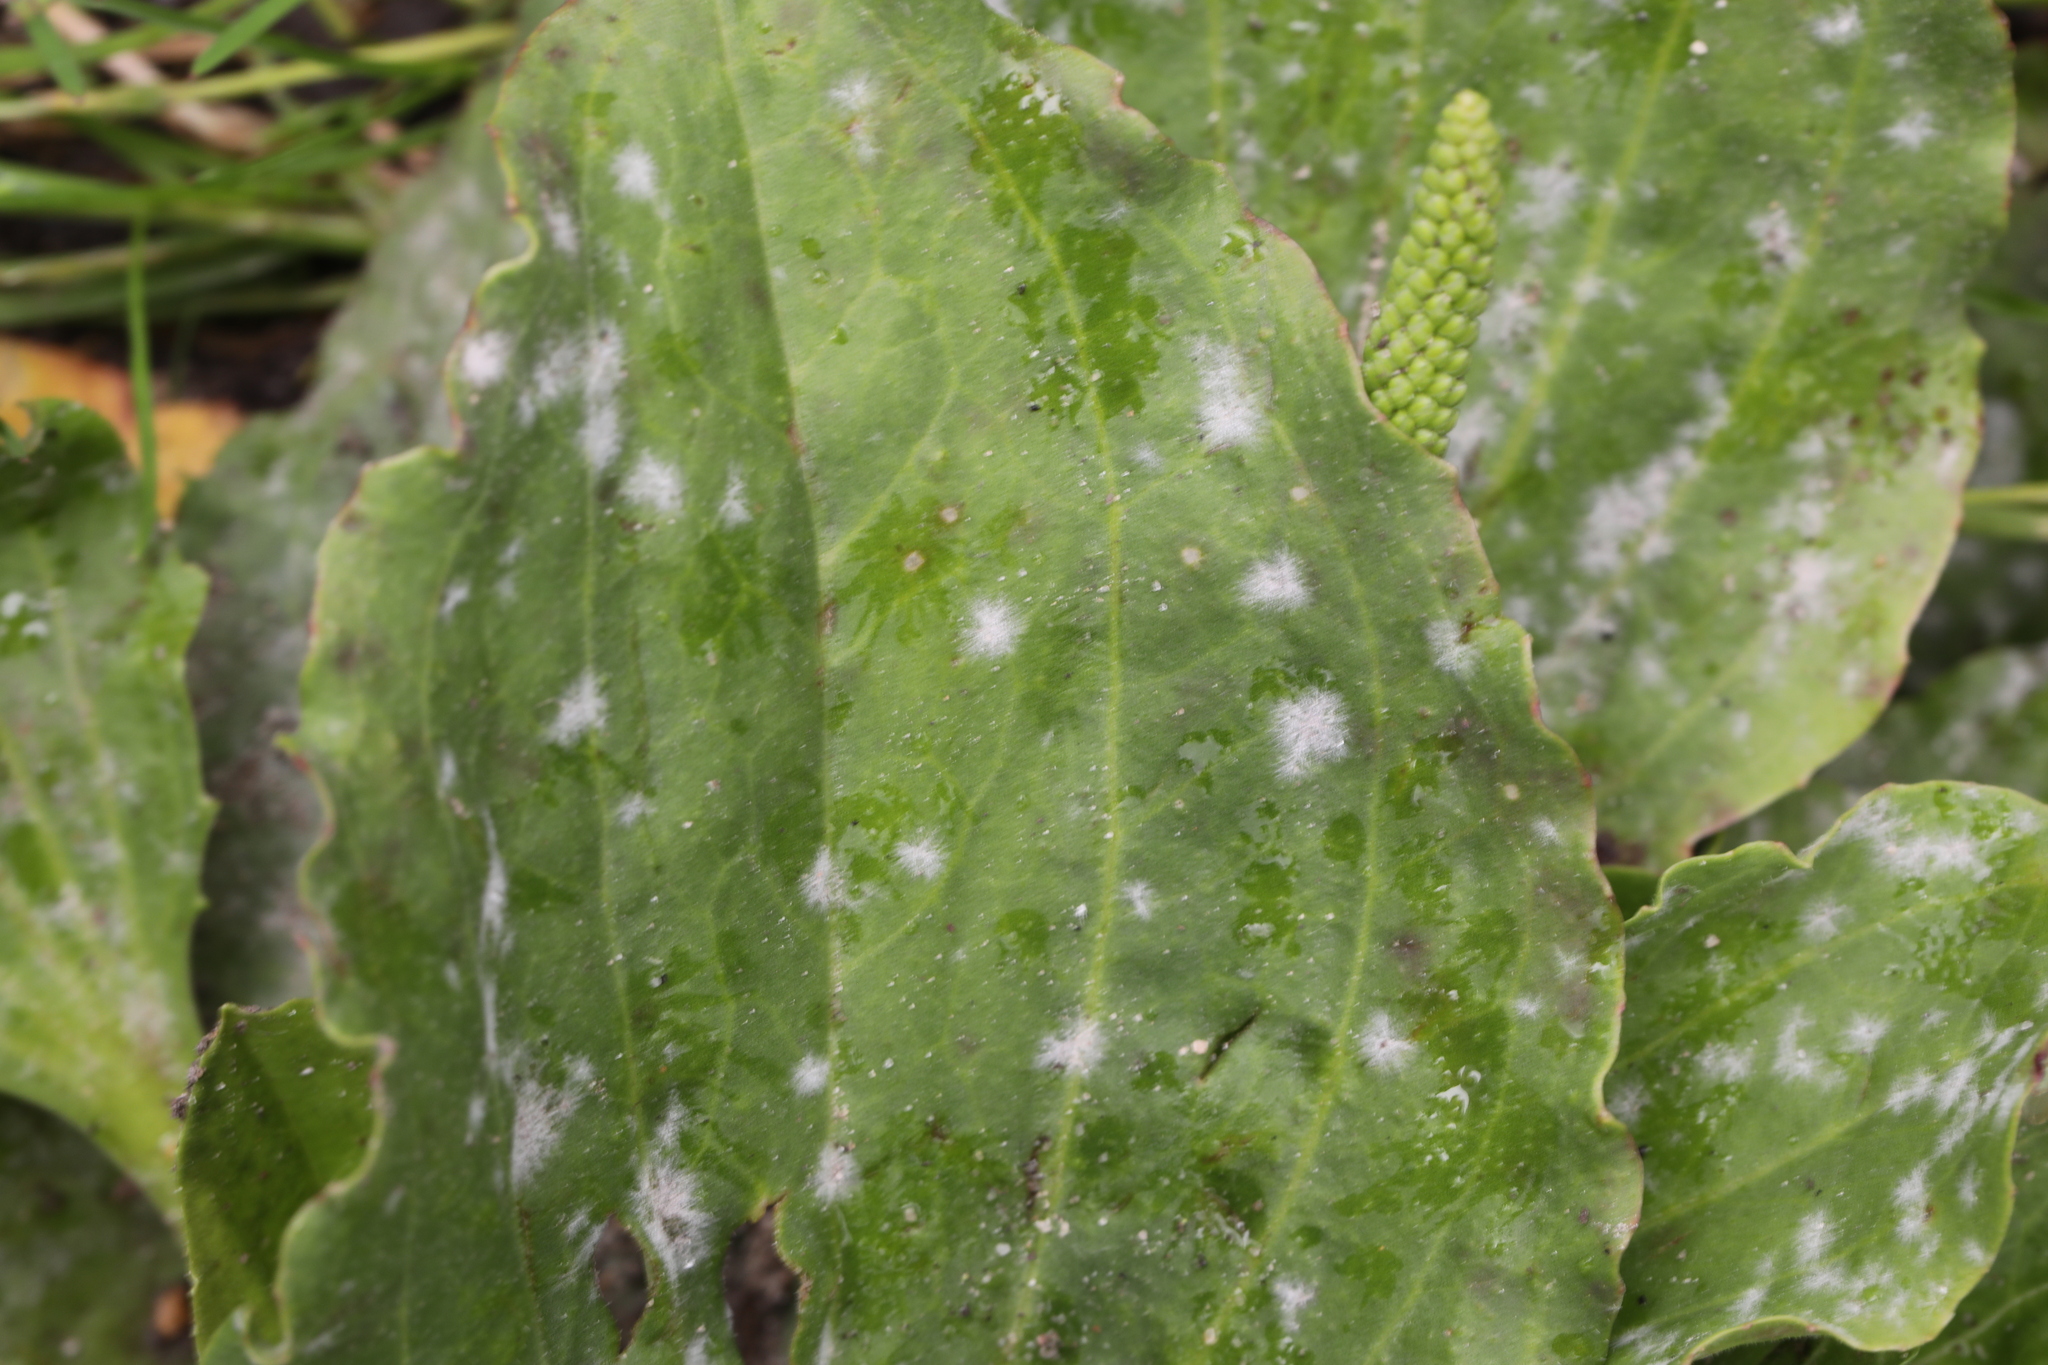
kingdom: Fungi
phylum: Ascomycota
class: Leotiomycetes
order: Helotiales
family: Erysiphaceae
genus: Golovinomyces
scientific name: Golovinomyces sordidus
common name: Plantain mildew
